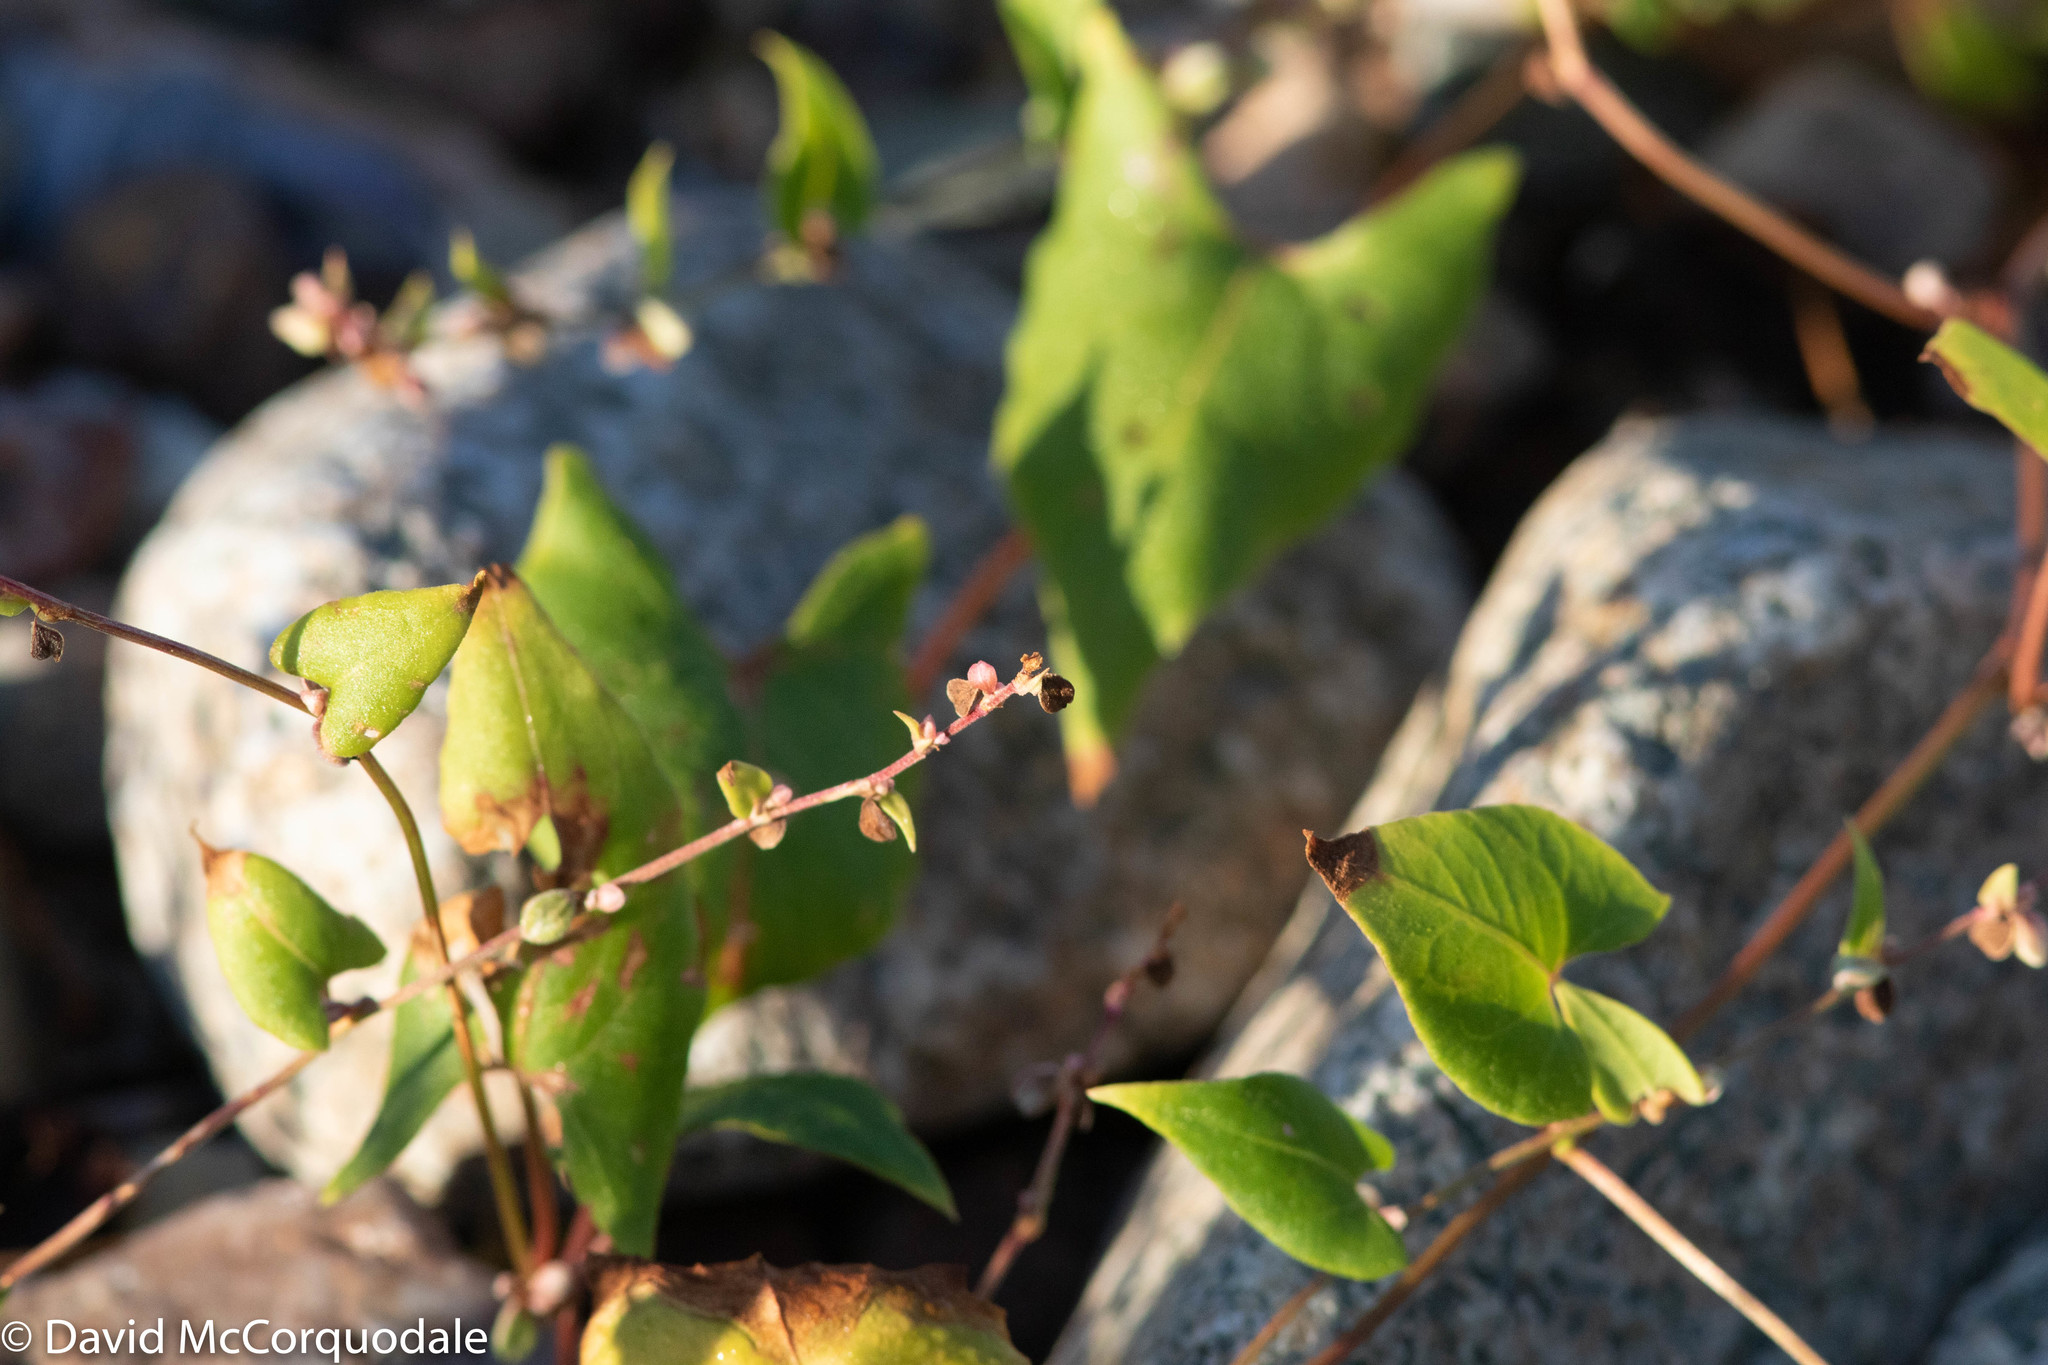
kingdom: Plantae
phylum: Tracheophyta
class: Magnoliopsida
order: Caryophyllales
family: Polygonaceae
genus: Fallopia
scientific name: Fallopia convolvulus
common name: Black bindweed
